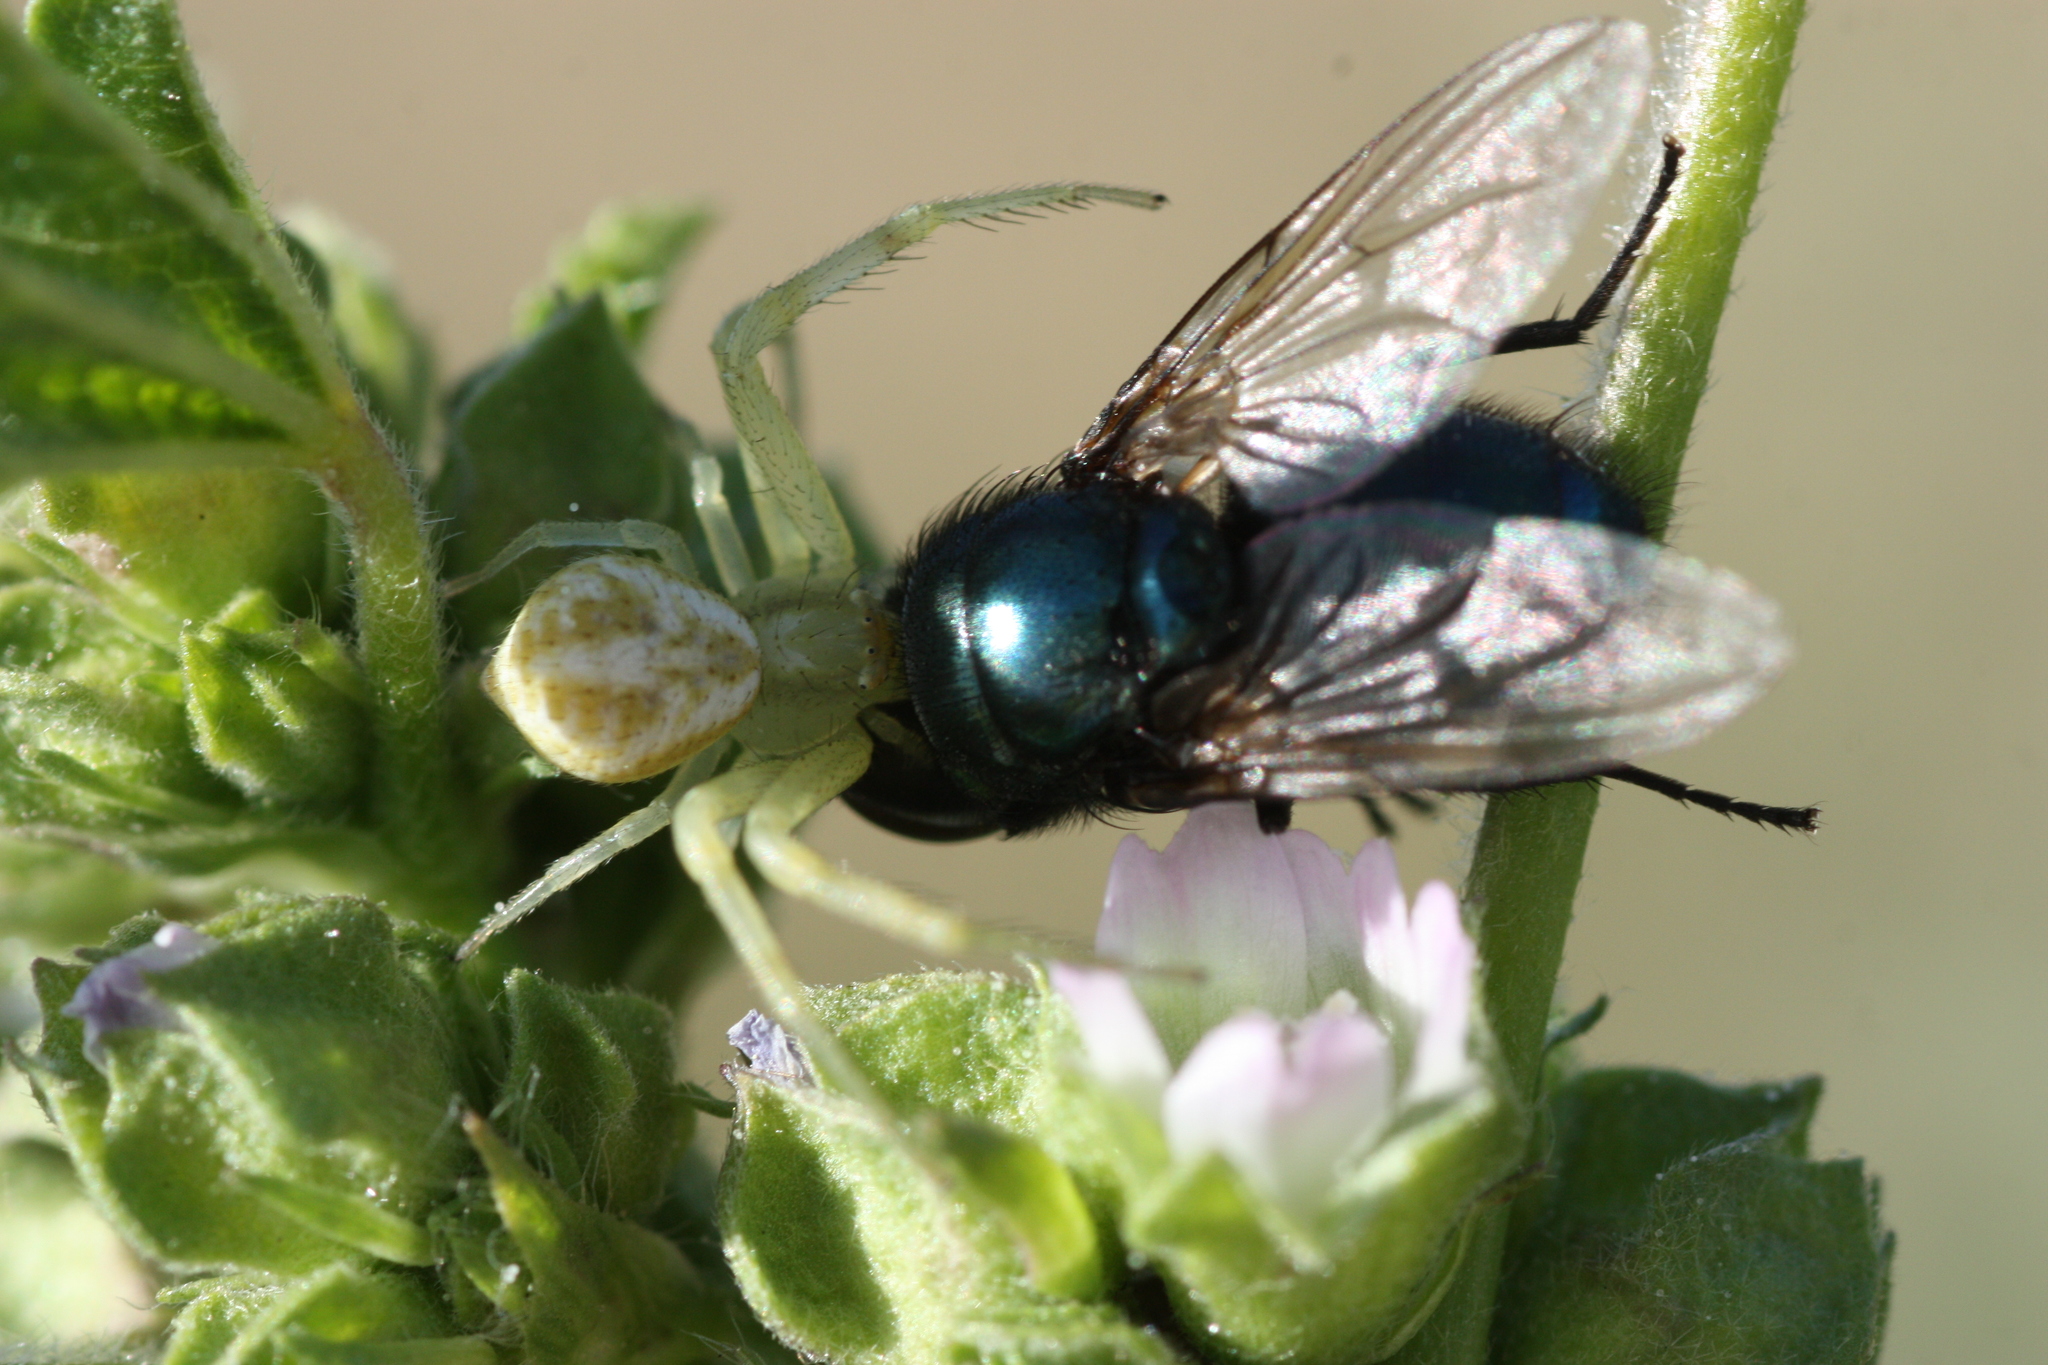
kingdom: Animalia
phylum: Arthropoda
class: Insecta
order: Diptera
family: Calliphoridae
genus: Phormia
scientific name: Phormia regina
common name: Black blow fly
